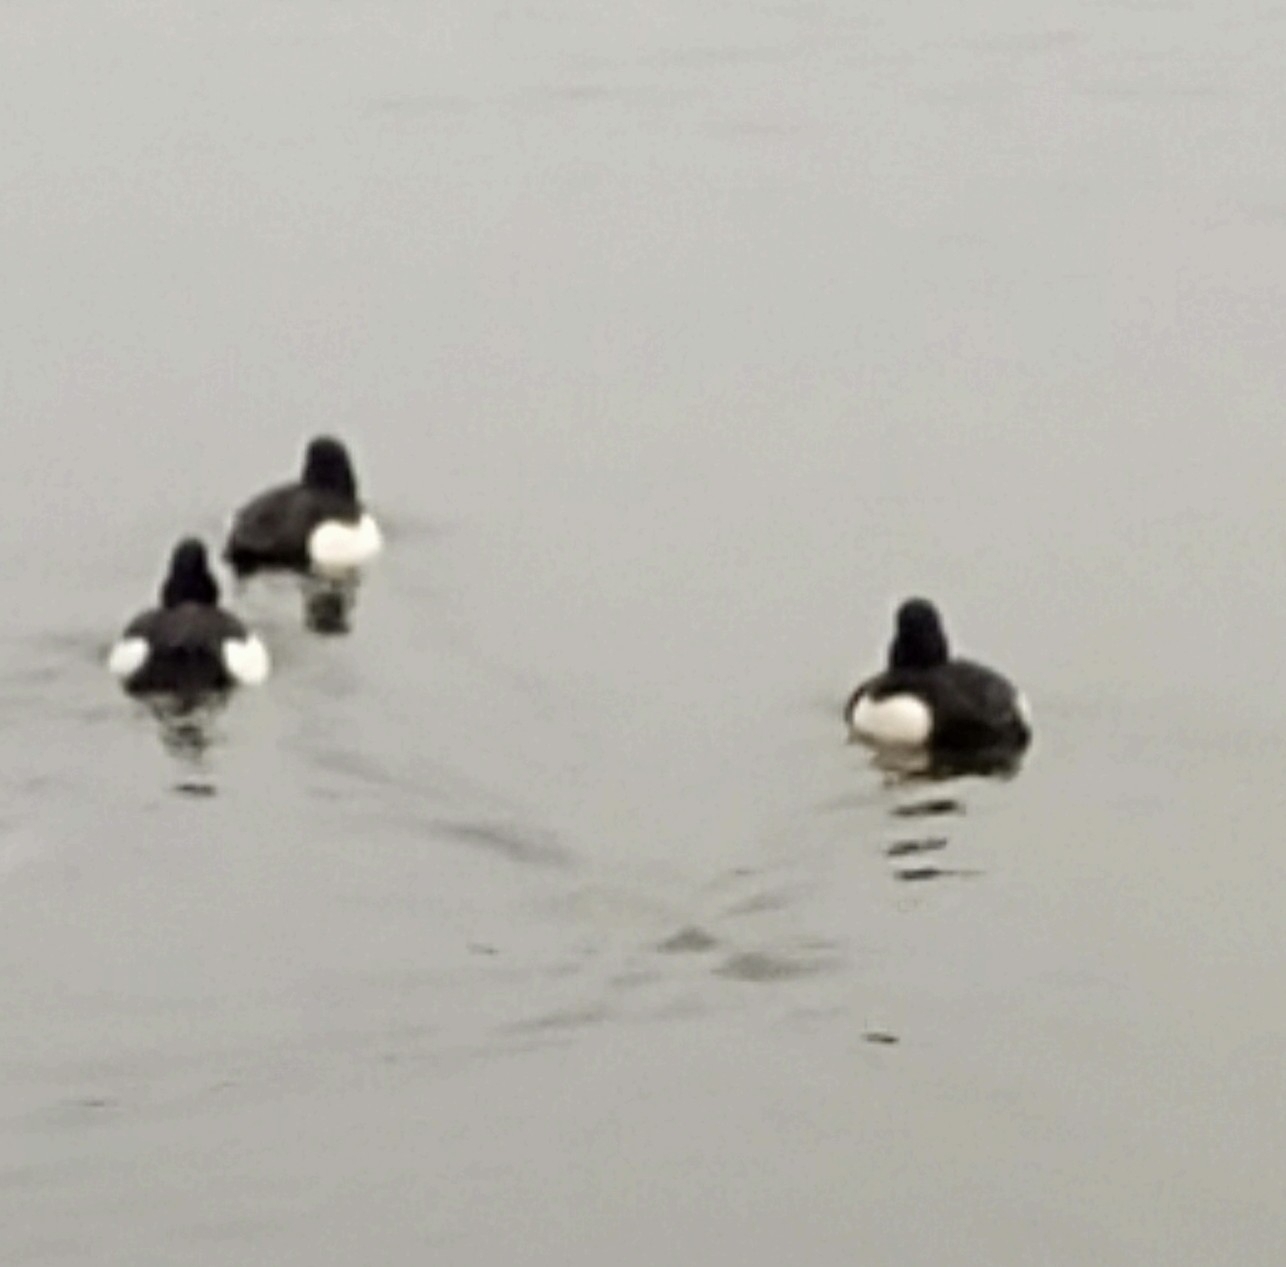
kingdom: Animalia
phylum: Chordata
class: Aves
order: Anseriformes
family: Anatidae
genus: Aythya
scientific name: Aythya fuligula
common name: Tufted duck
